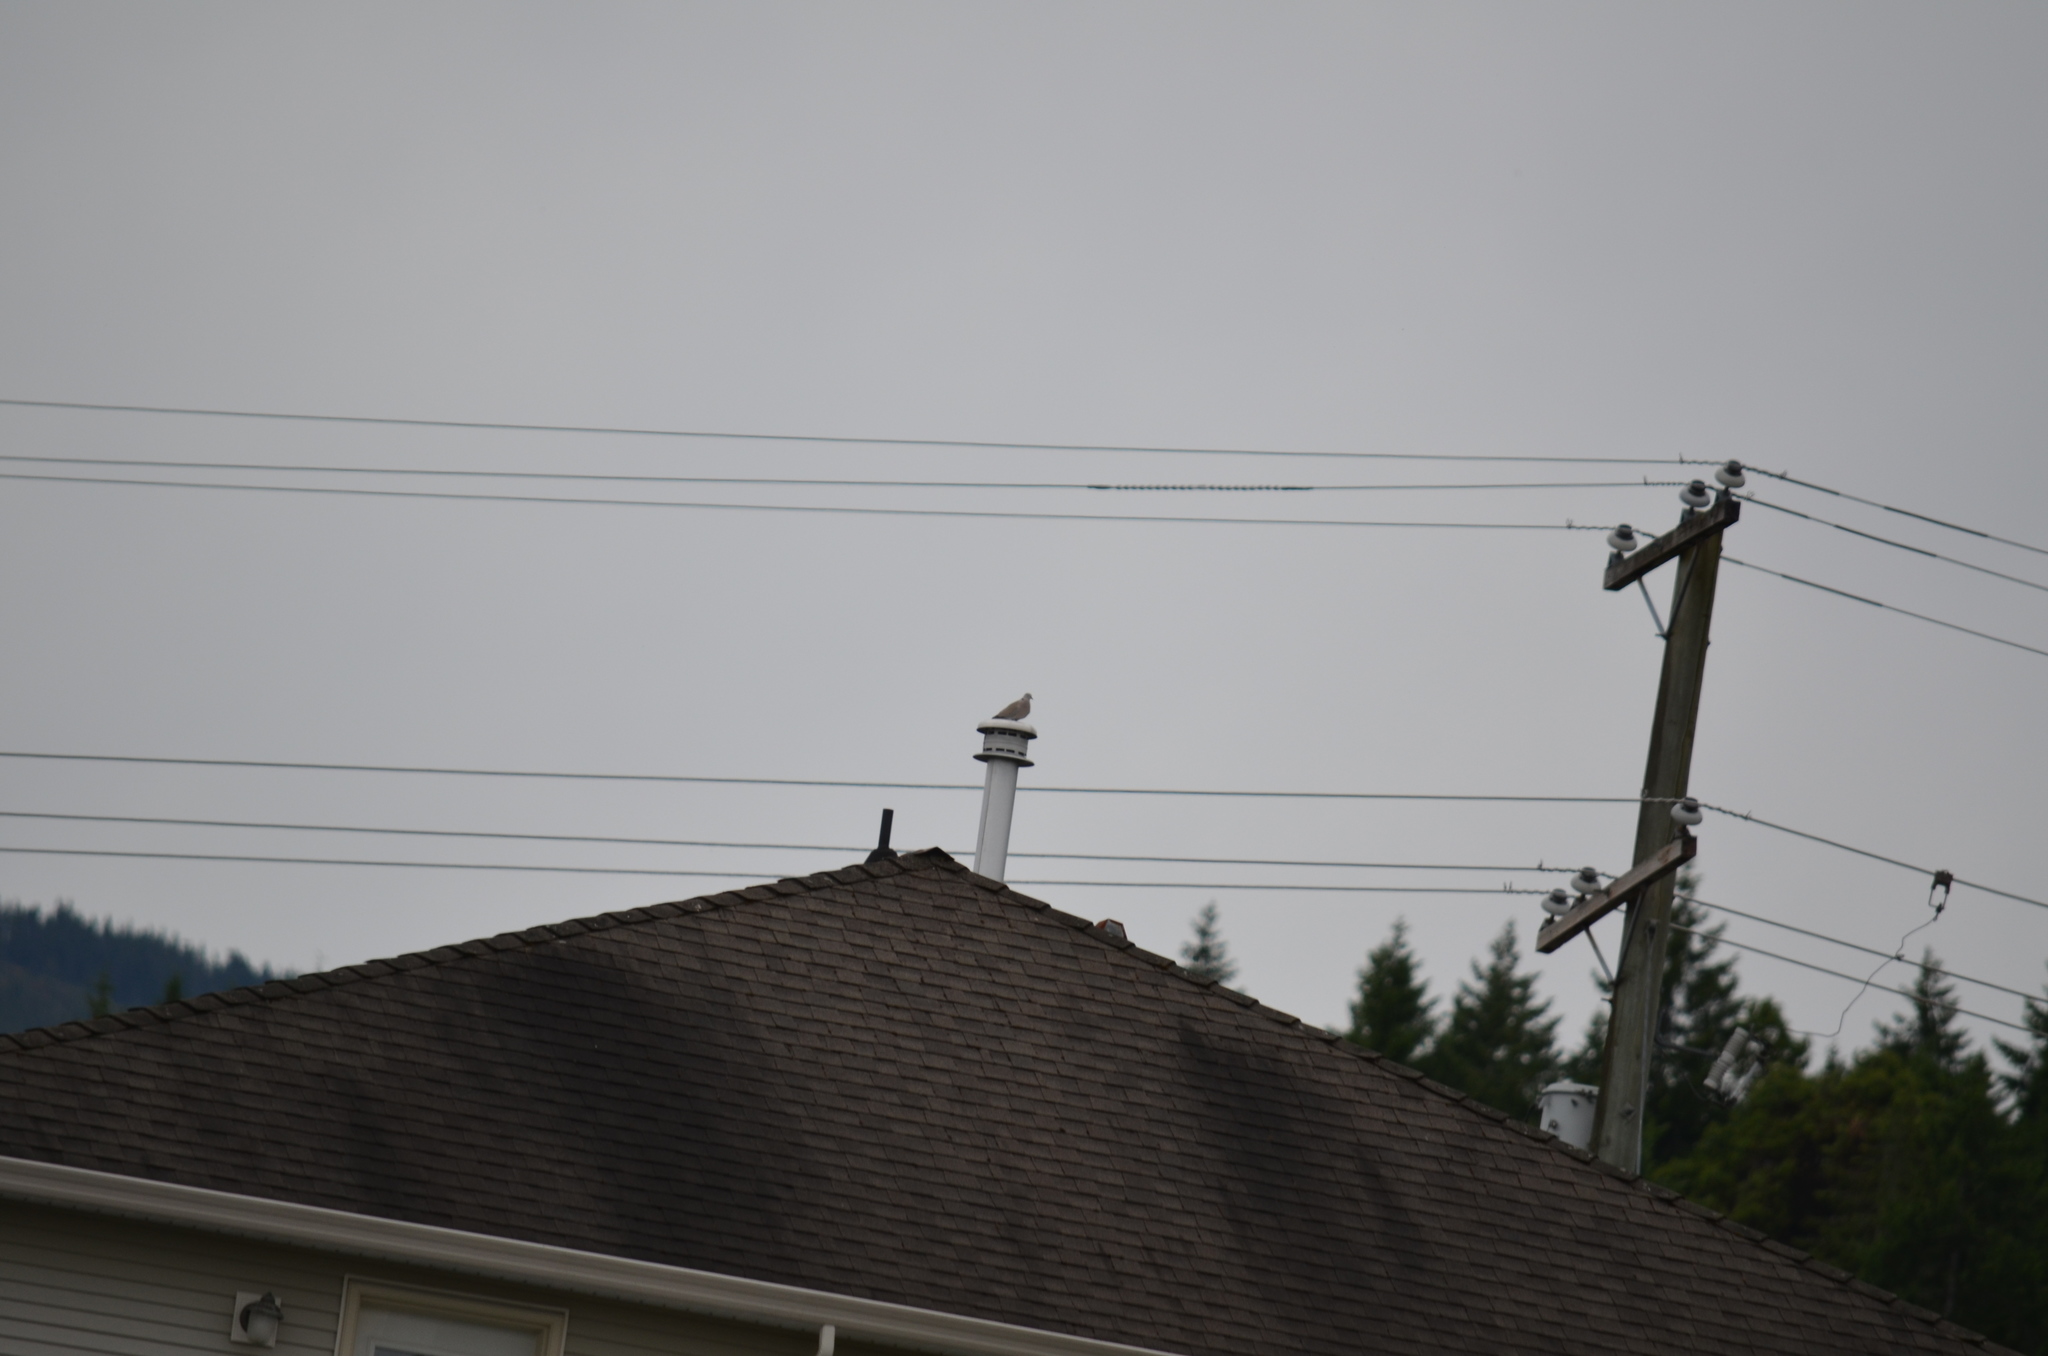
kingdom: Animalia
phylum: Chordata
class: Aves
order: Columbiformes
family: Columbidae
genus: Streptopelia
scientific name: Streptopelia decaocto
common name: Eurasian collared dove
